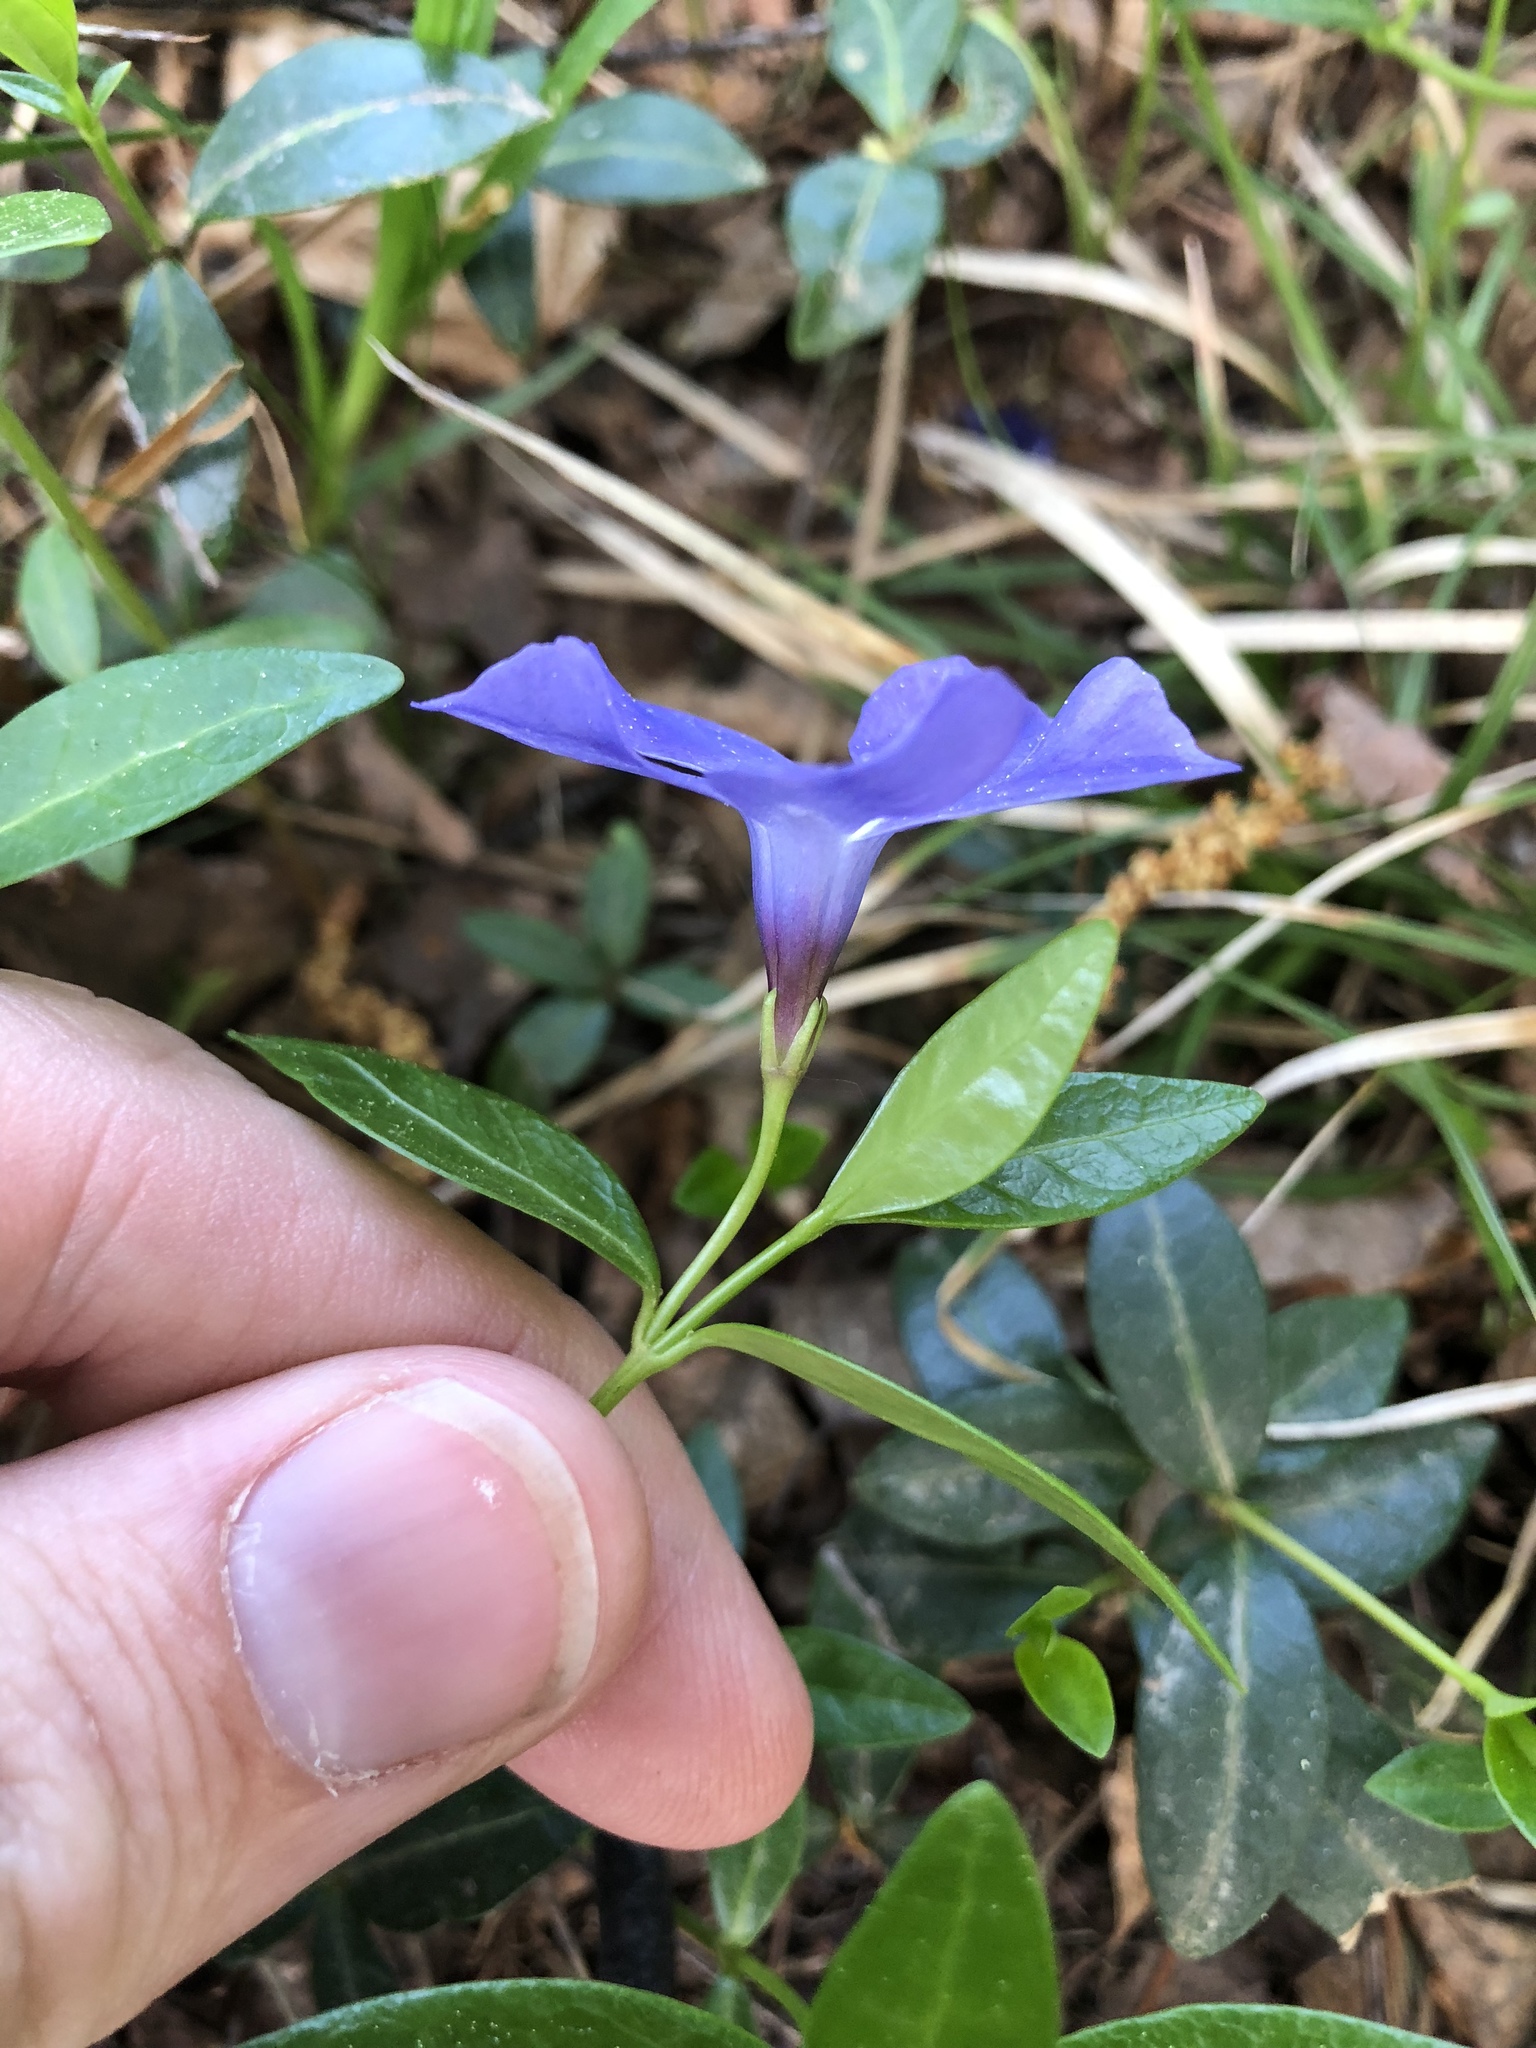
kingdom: Plantae
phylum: Tracheophyta
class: Magnoliopsida
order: Gentianales
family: Apocynaceae
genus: Vinca
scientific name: Vinca minor
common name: Lesser periwinkle
